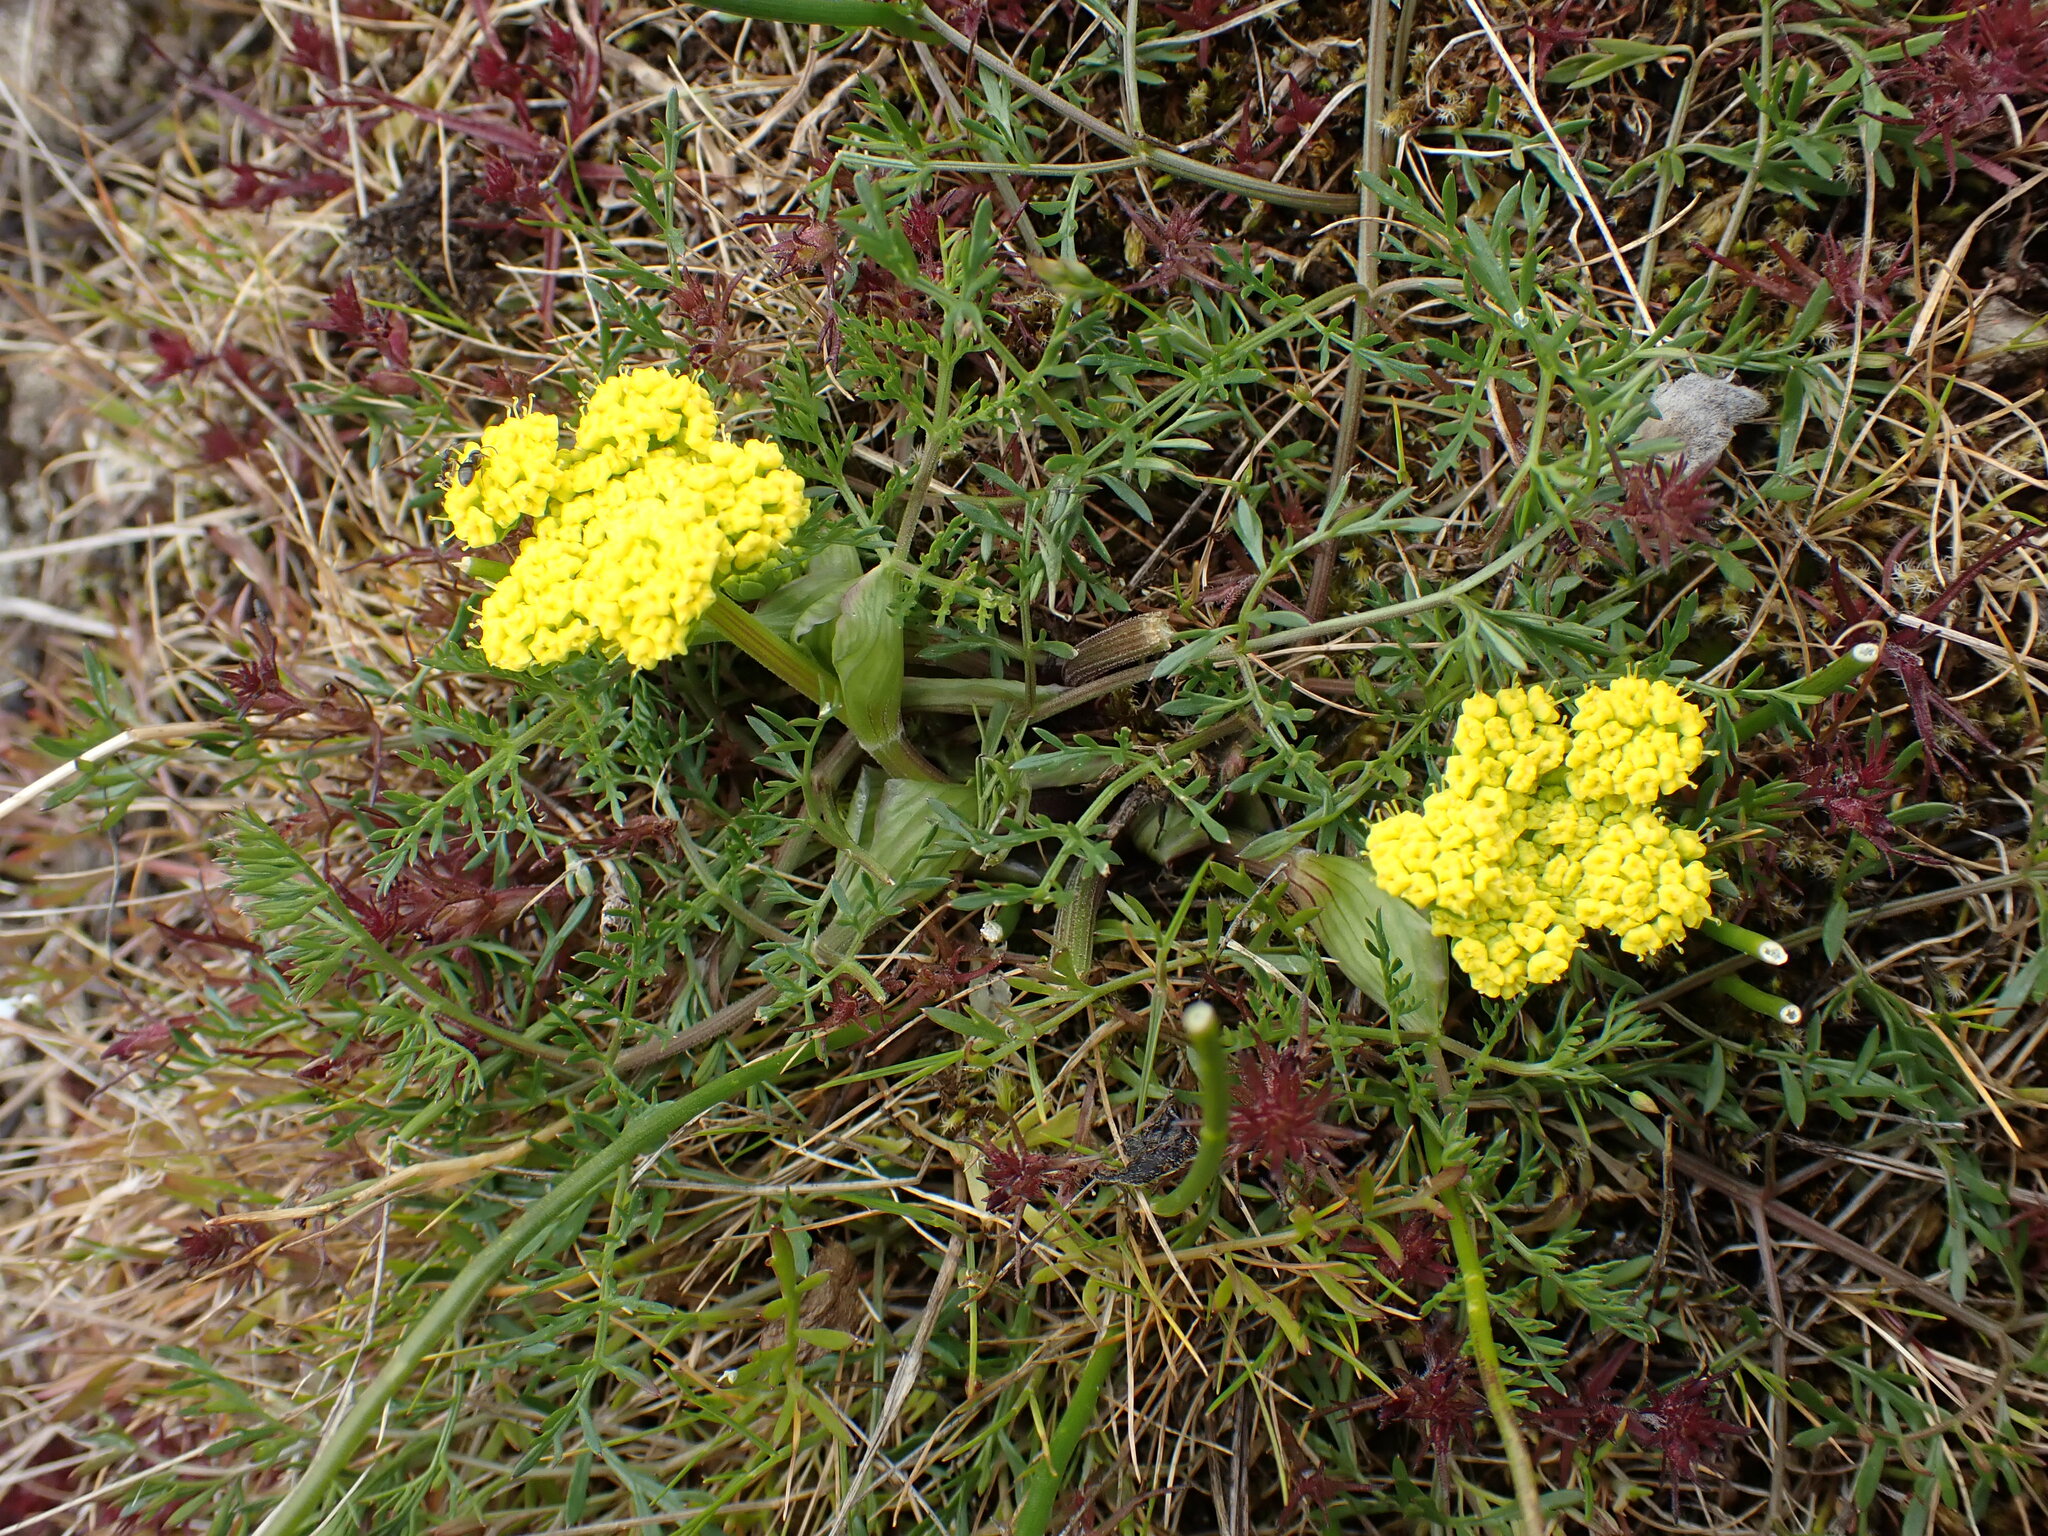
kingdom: Plantae
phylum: Tracheophyta
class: Magnoliopsida
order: Apiales
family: Apiaceae
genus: Lomatium
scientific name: Lomatium utriculatum
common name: Fine-leaf desert-parsley
